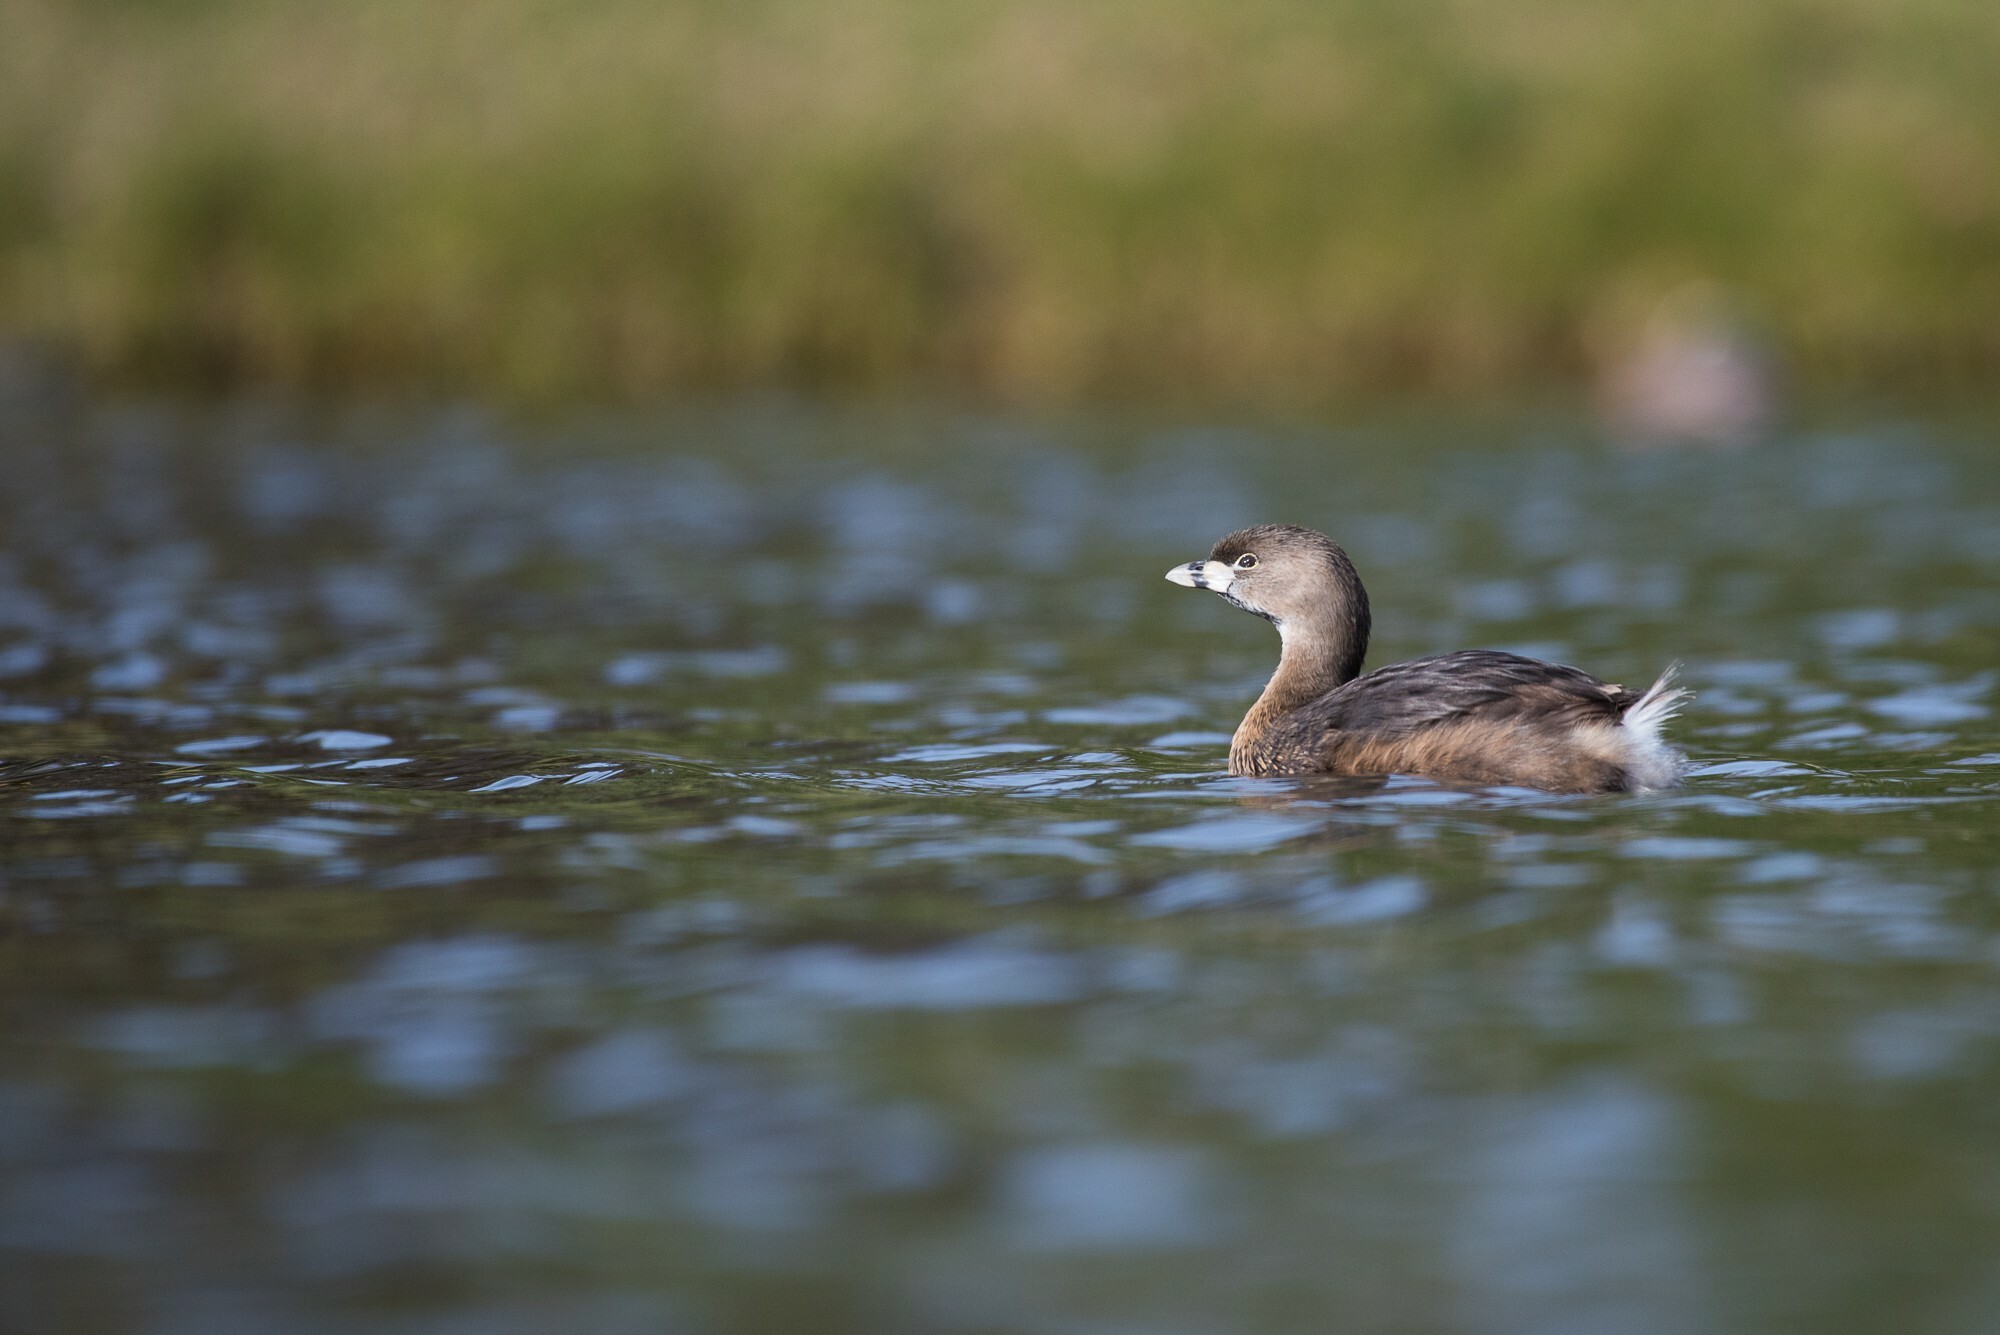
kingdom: Animalia
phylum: Chordata
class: Aves
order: Podicipediformes
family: Podicipedidae
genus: Podilymbus
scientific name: Podilymbus podiceps
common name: Pied-billed grebe
